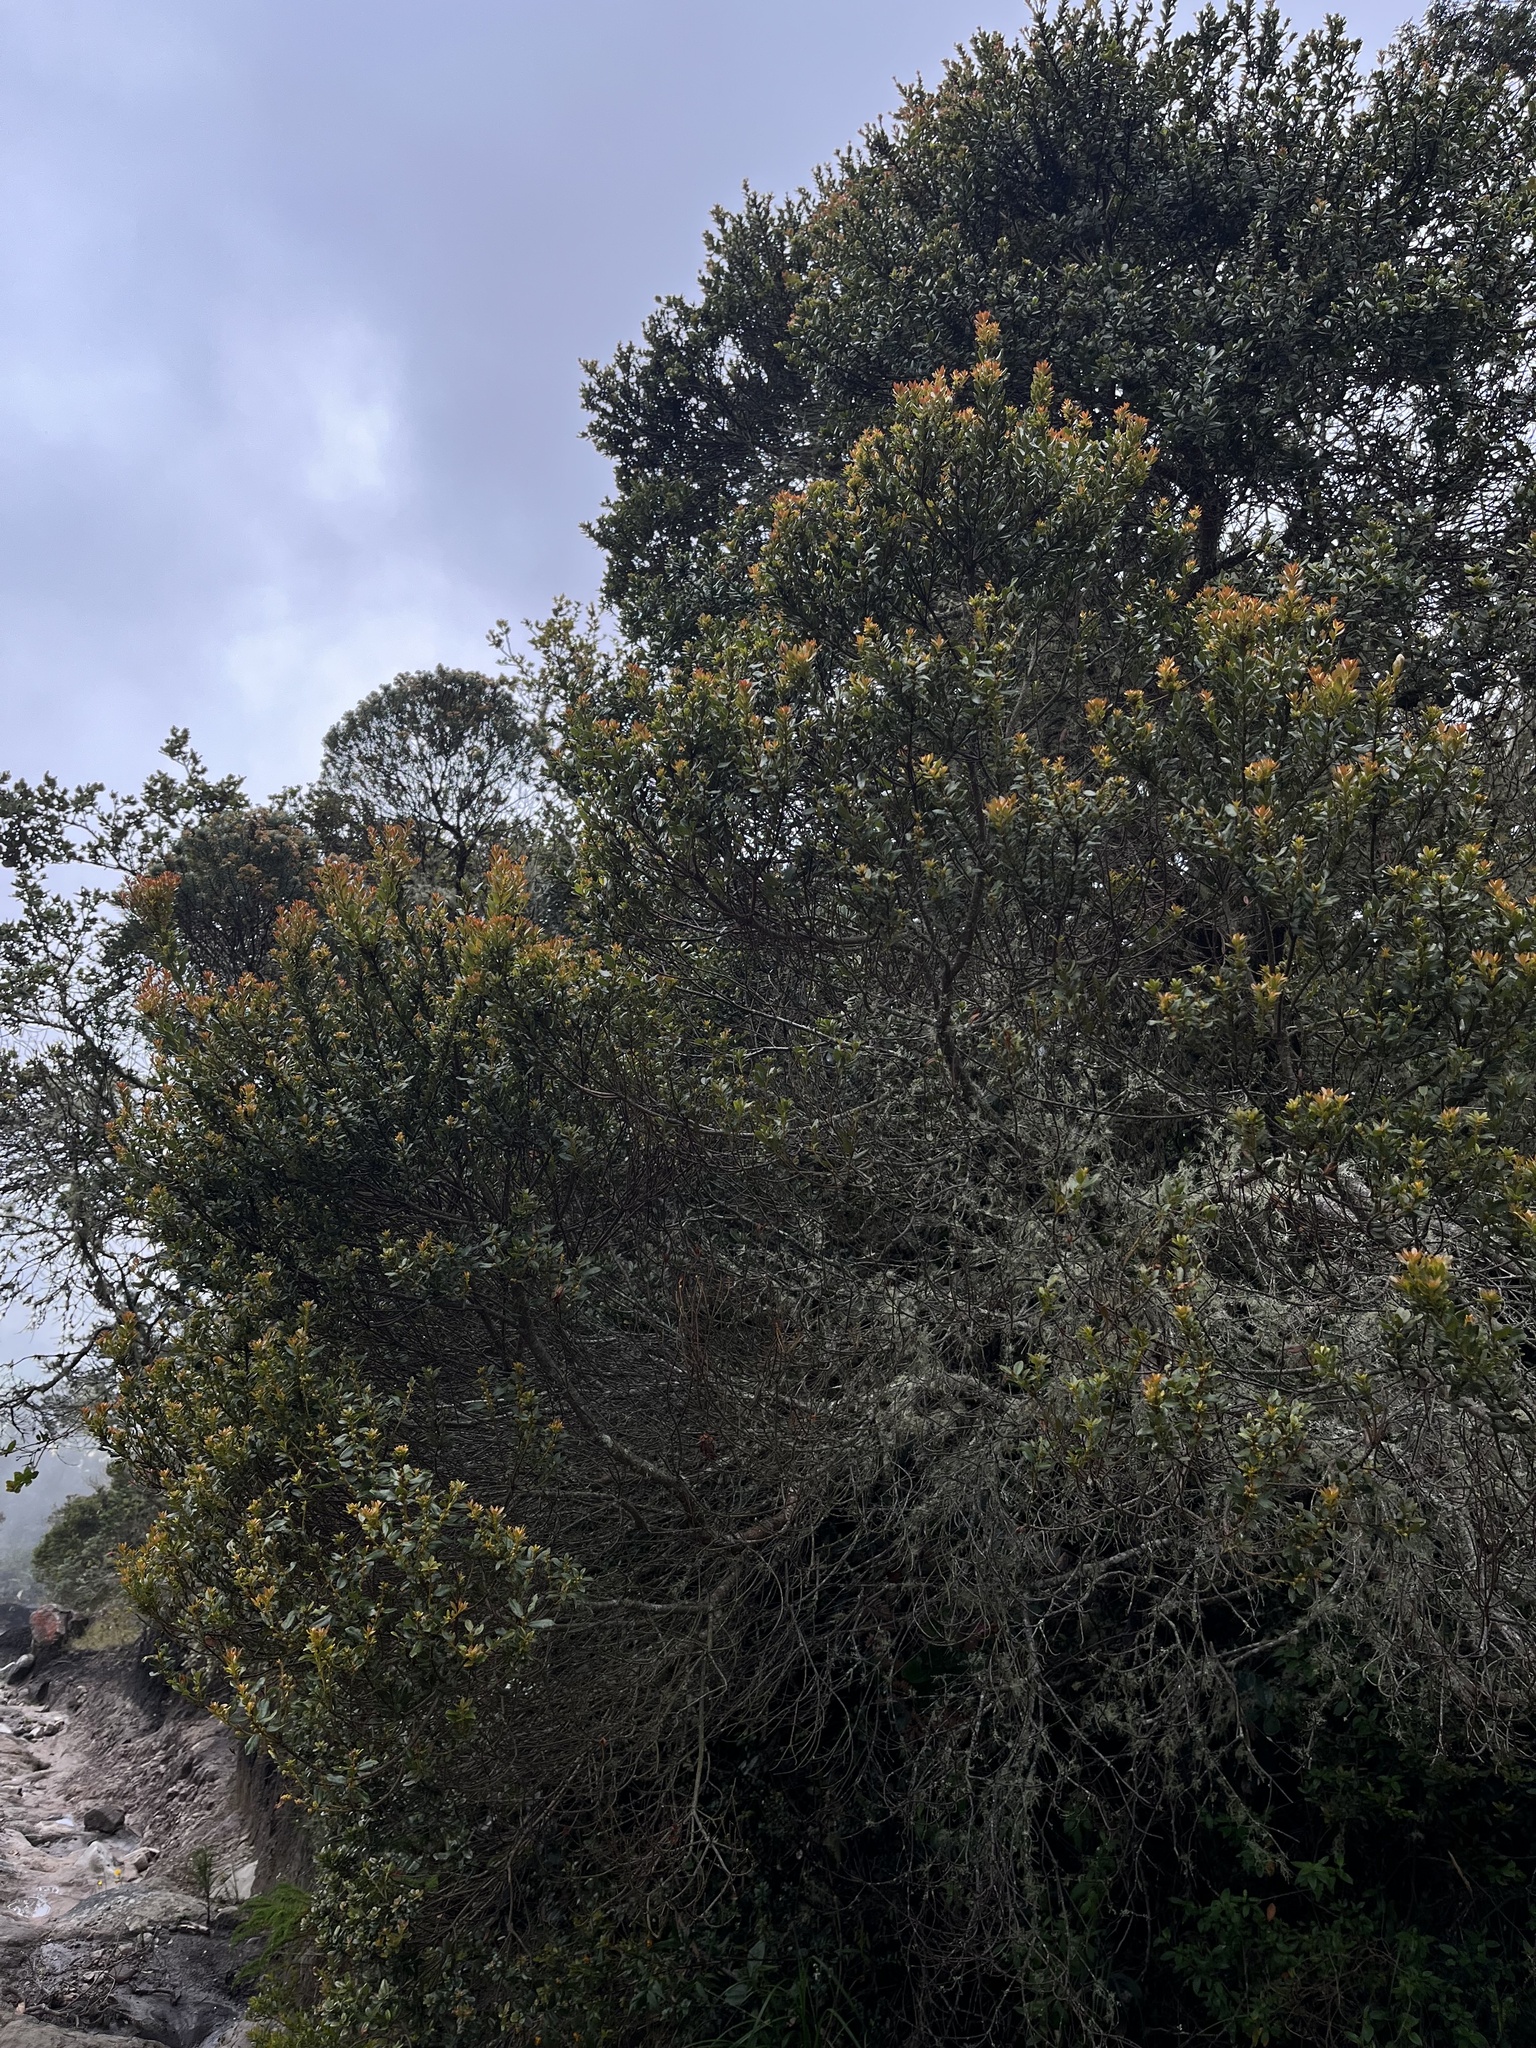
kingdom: Plantae
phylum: Tracheophyta
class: Magnoliopsida
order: Fagales
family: Myricaceae
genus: Morella
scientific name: Morella parvifolia
